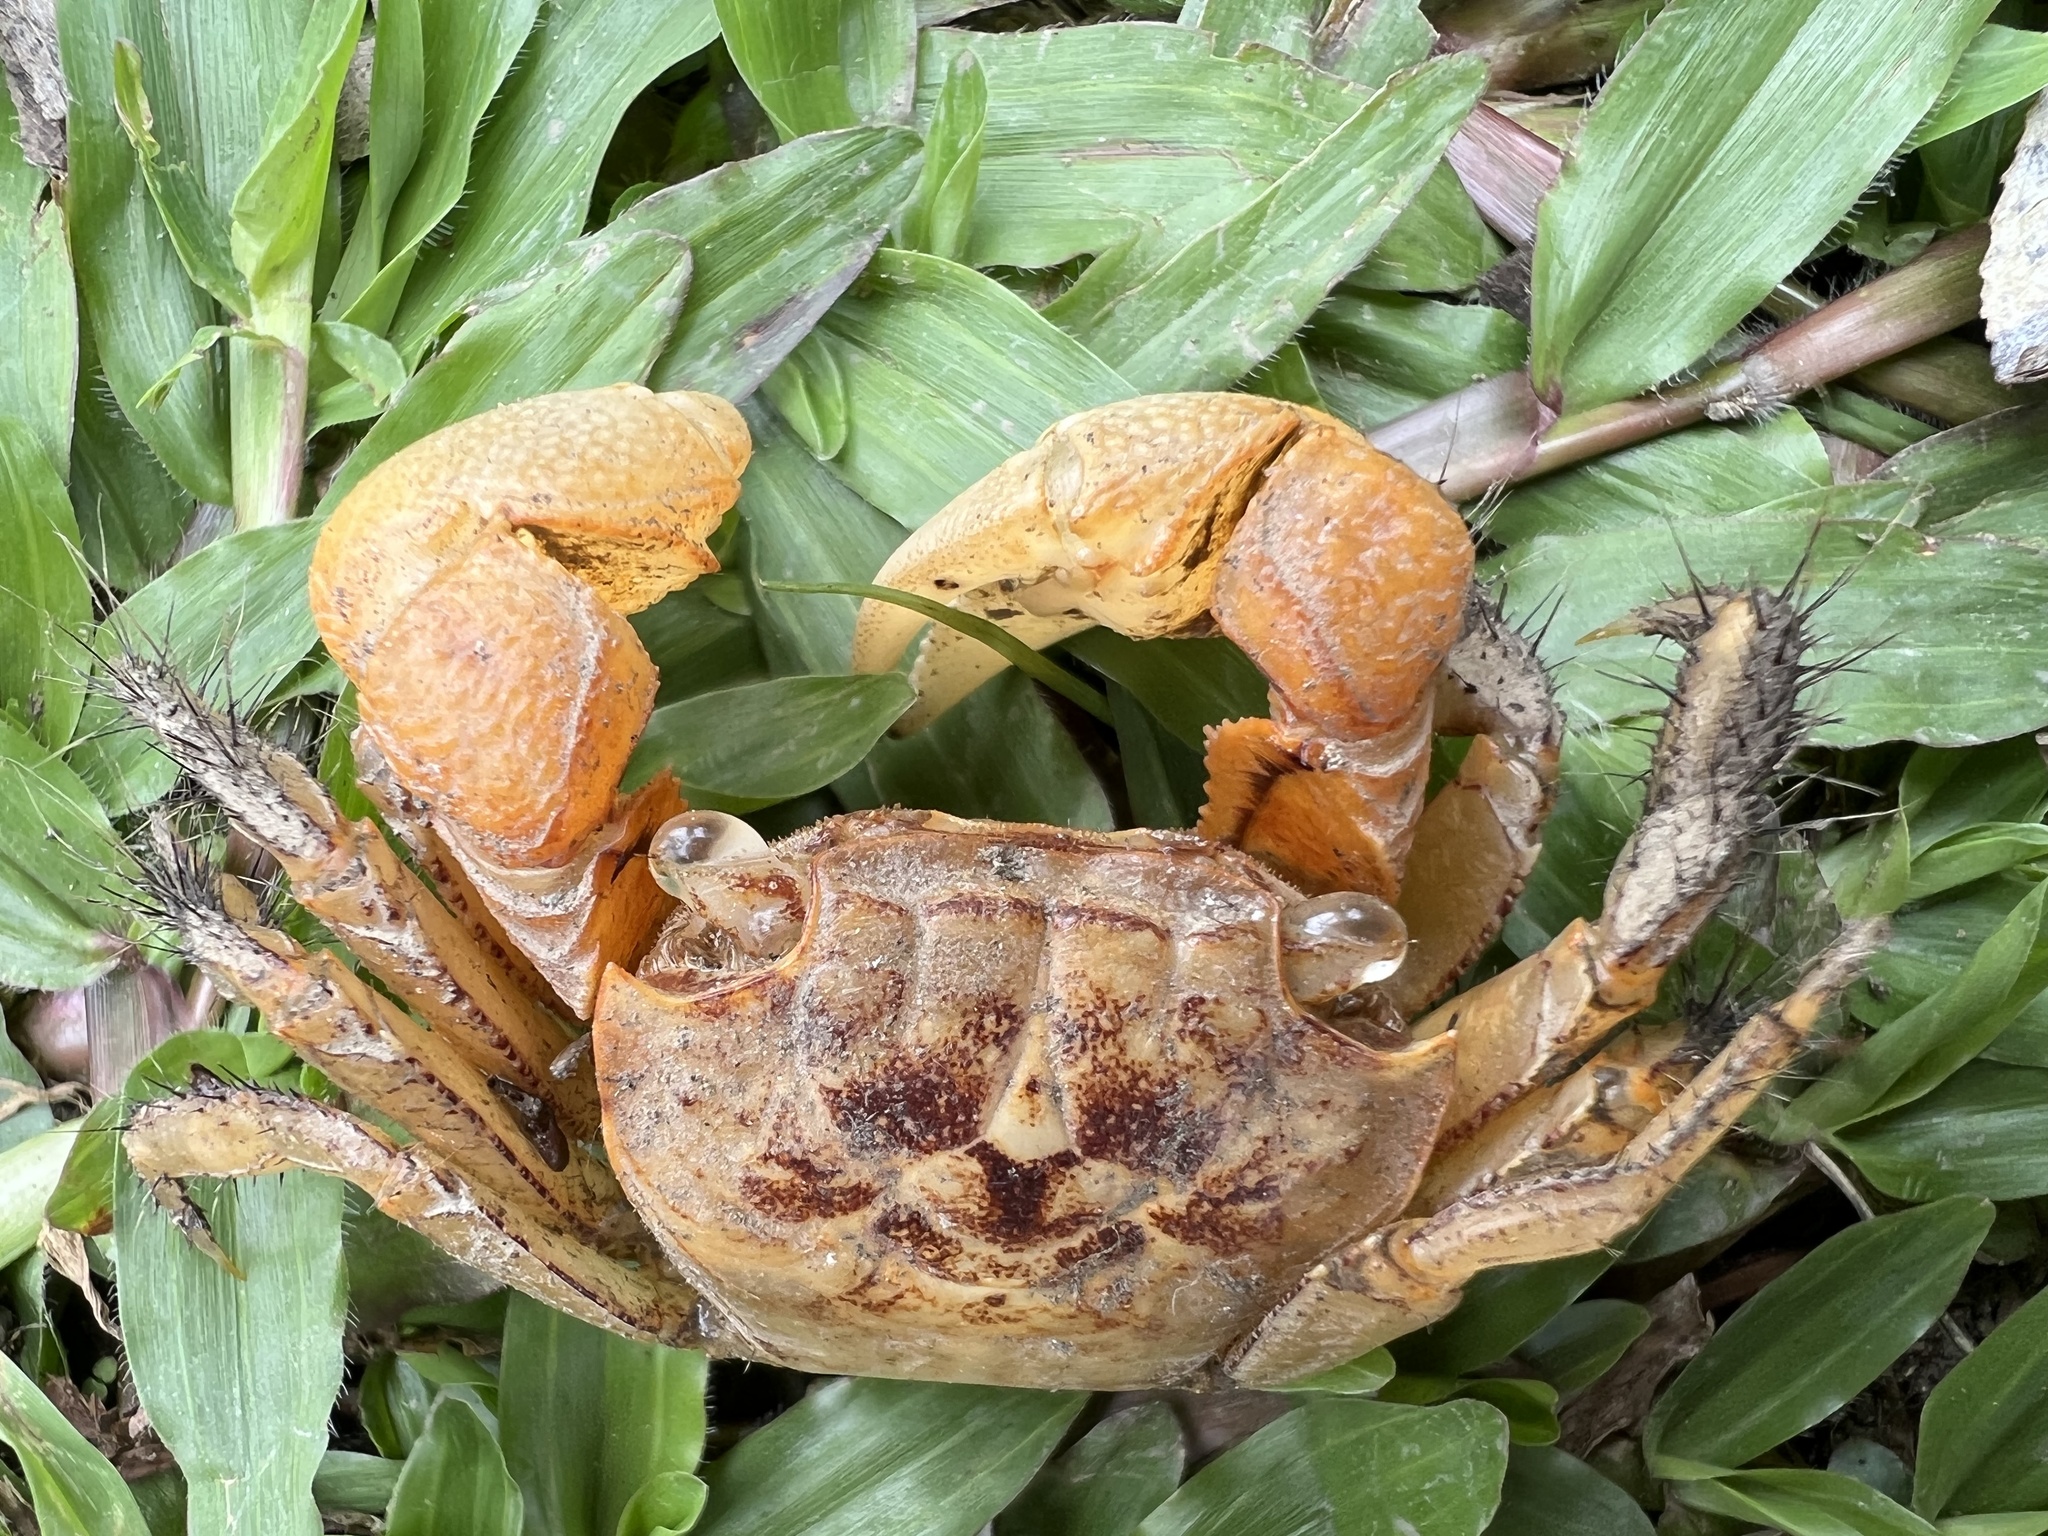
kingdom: Animalia
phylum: Arthropoda
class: Malacostraca
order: Decapoda
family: Sesarmidae
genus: Orisarma
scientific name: Orisarma dehaani
